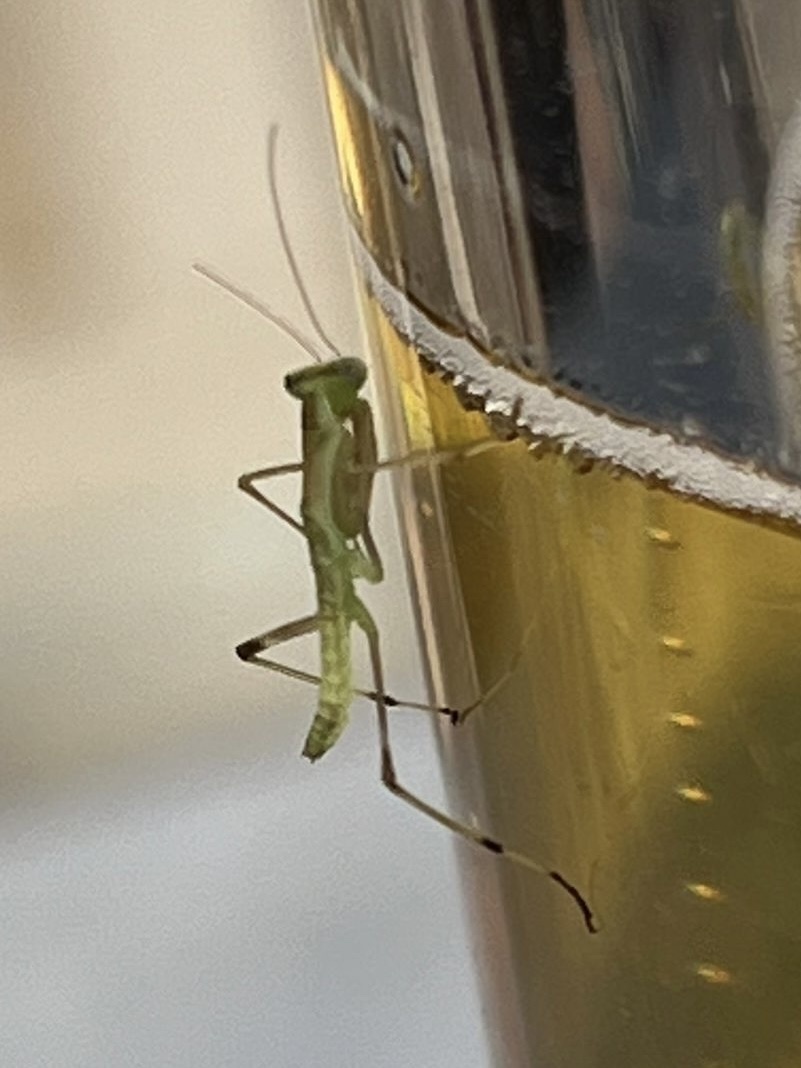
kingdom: Animalia
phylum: Arthropoda
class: Insecta
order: Mantodea
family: Mantidae
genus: Hierodula
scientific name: Hierodula transcaucasica
